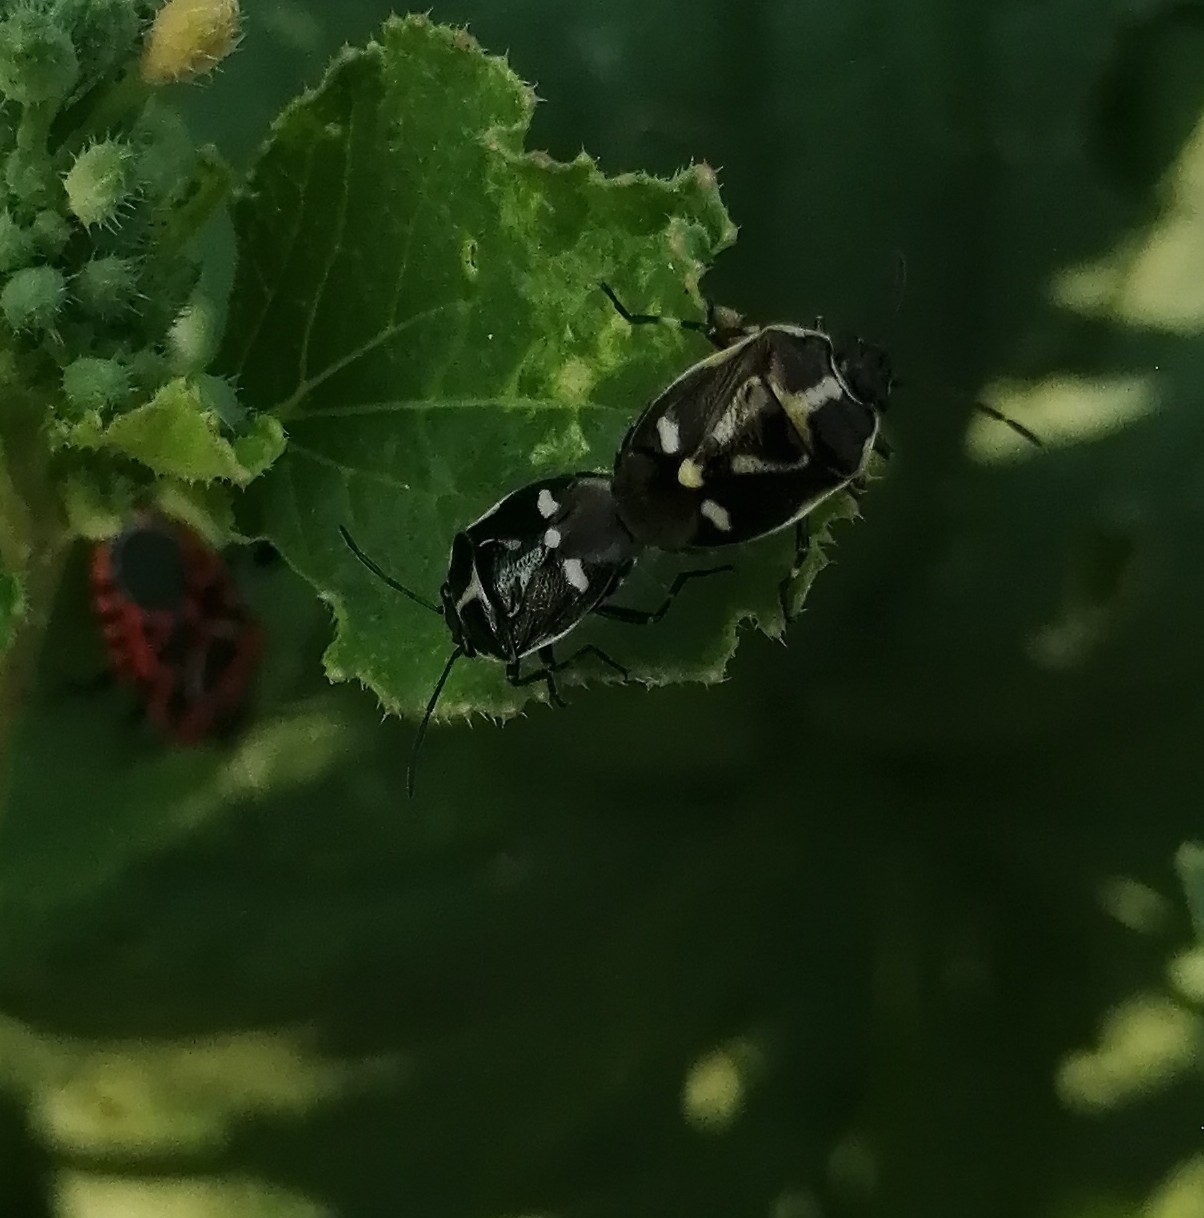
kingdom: Animalia
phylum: Arthropoda
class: Insecta
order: Hemiptera
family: Pentatomidae
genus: Eurydema
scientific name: Eurydema oleracea
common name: Cabbage bug
